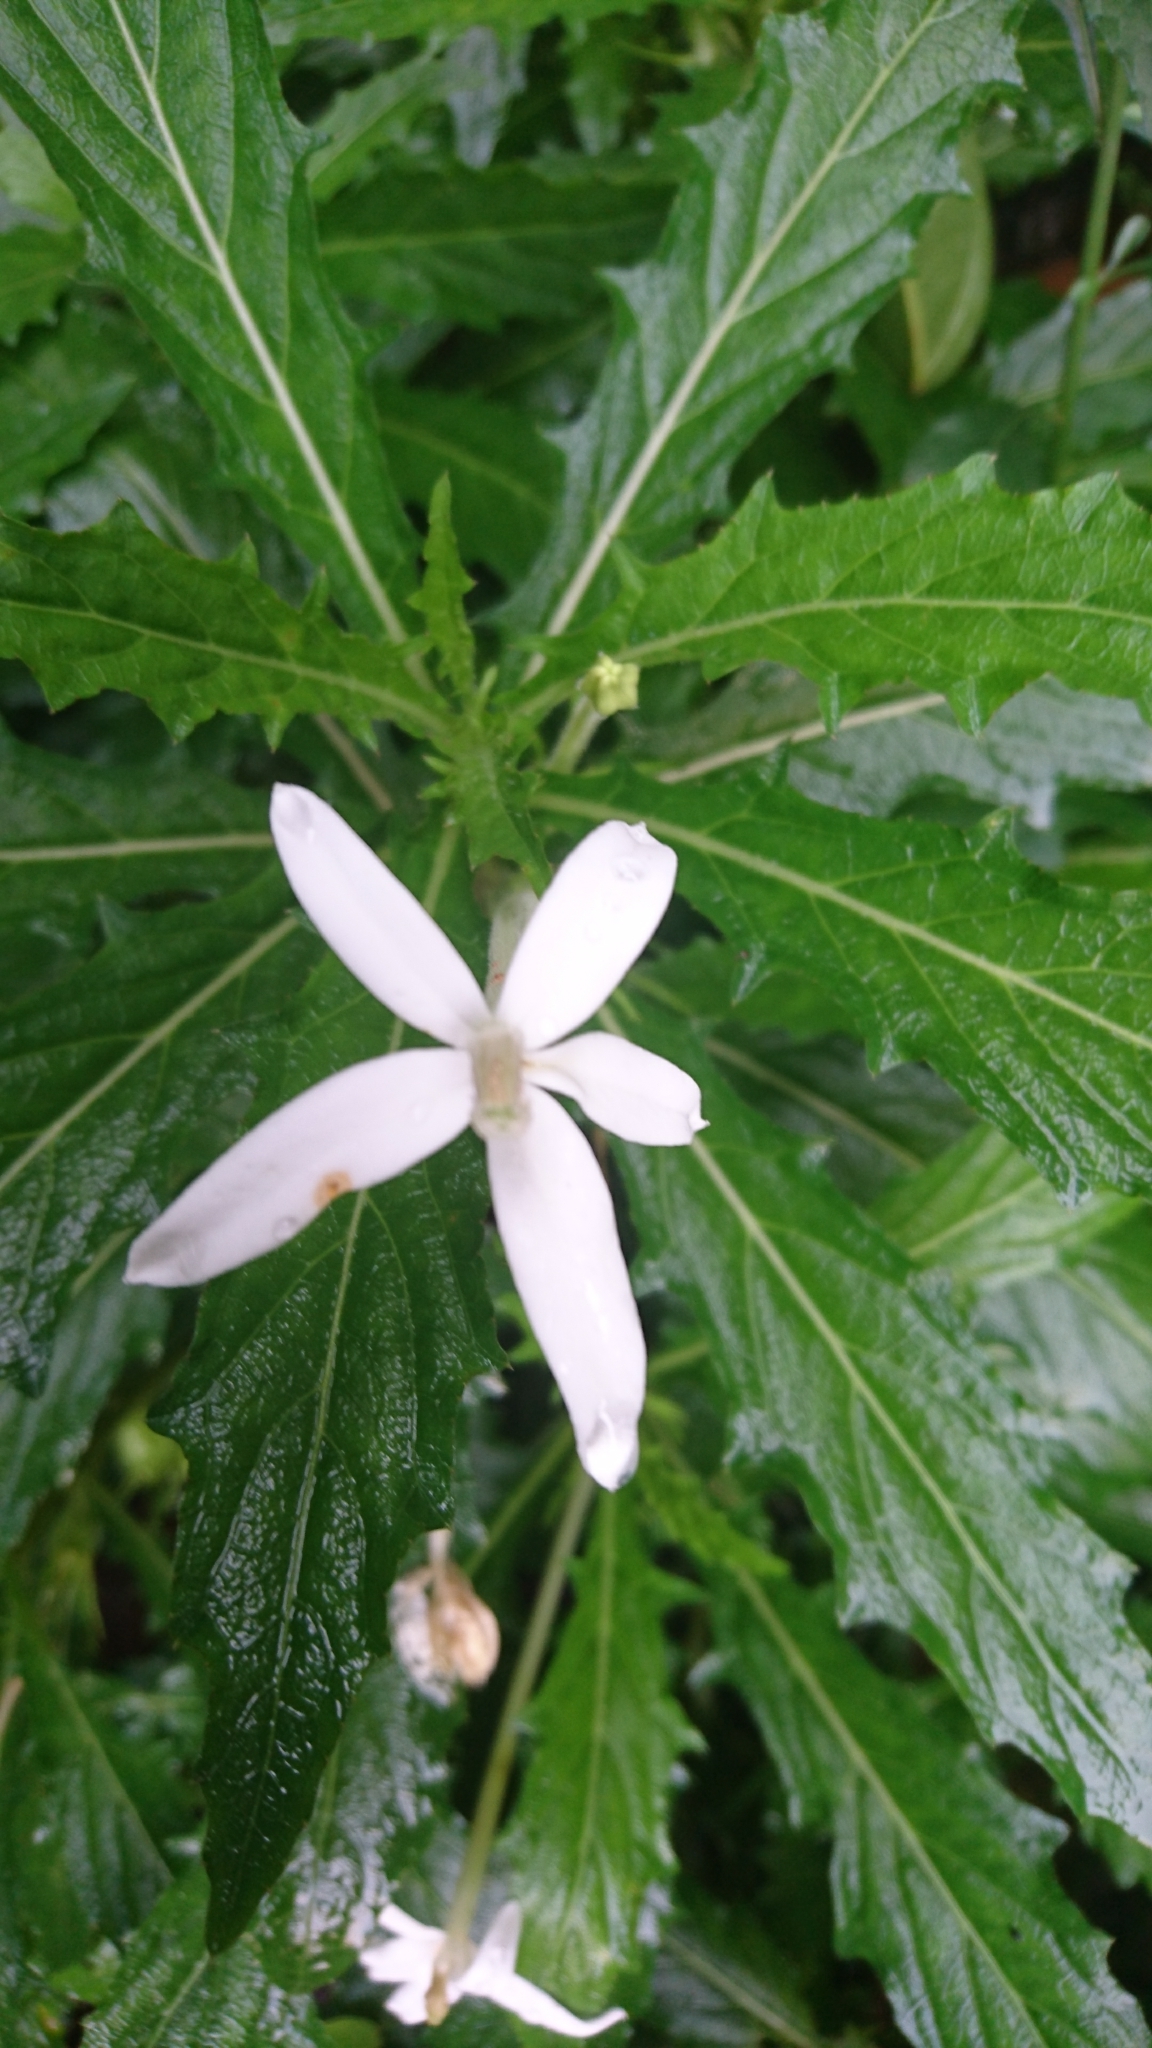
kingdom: Plantae
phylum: Tracheophyta
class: Magnoliopsida
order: Asterales
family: Campanulaceae
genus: Hippobroma
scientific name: Hippobroma longiflora
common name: Madamfate
